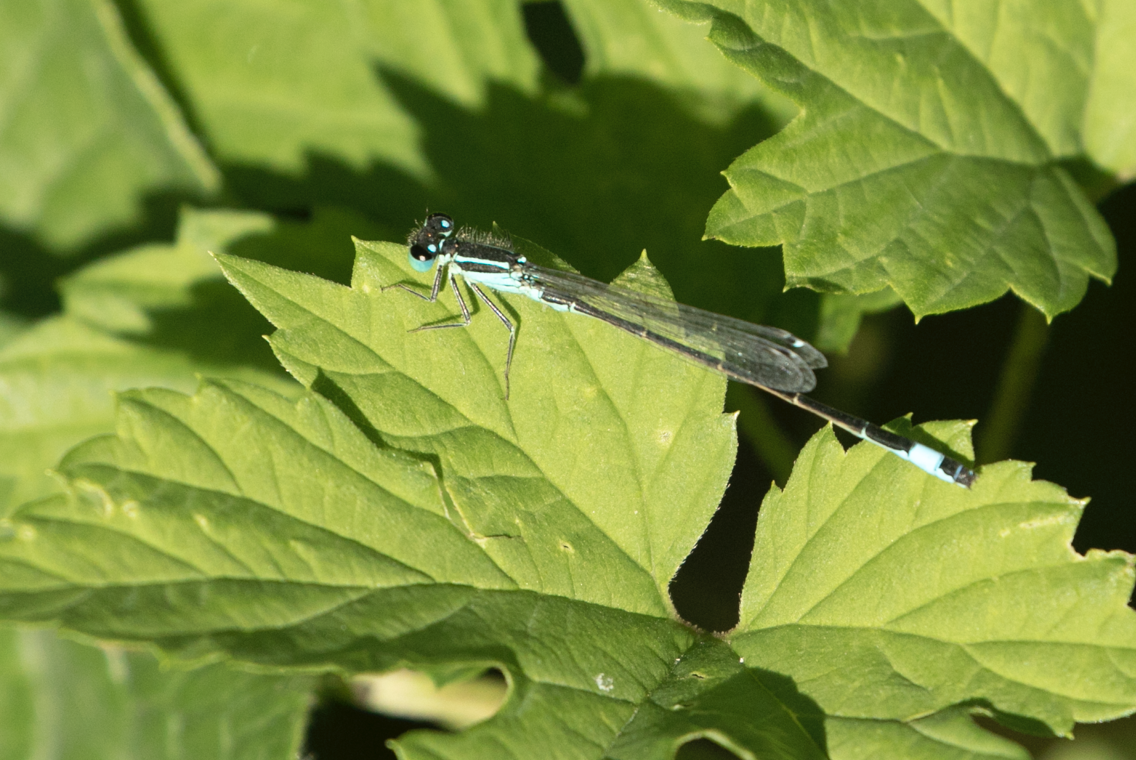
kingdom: Animalia
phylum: Arthropoda
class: Insecta
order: Odonata
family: Coenagrionidae
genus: Ischnura
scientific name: Ischnura elegans
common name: Blue-tailed damselfly
